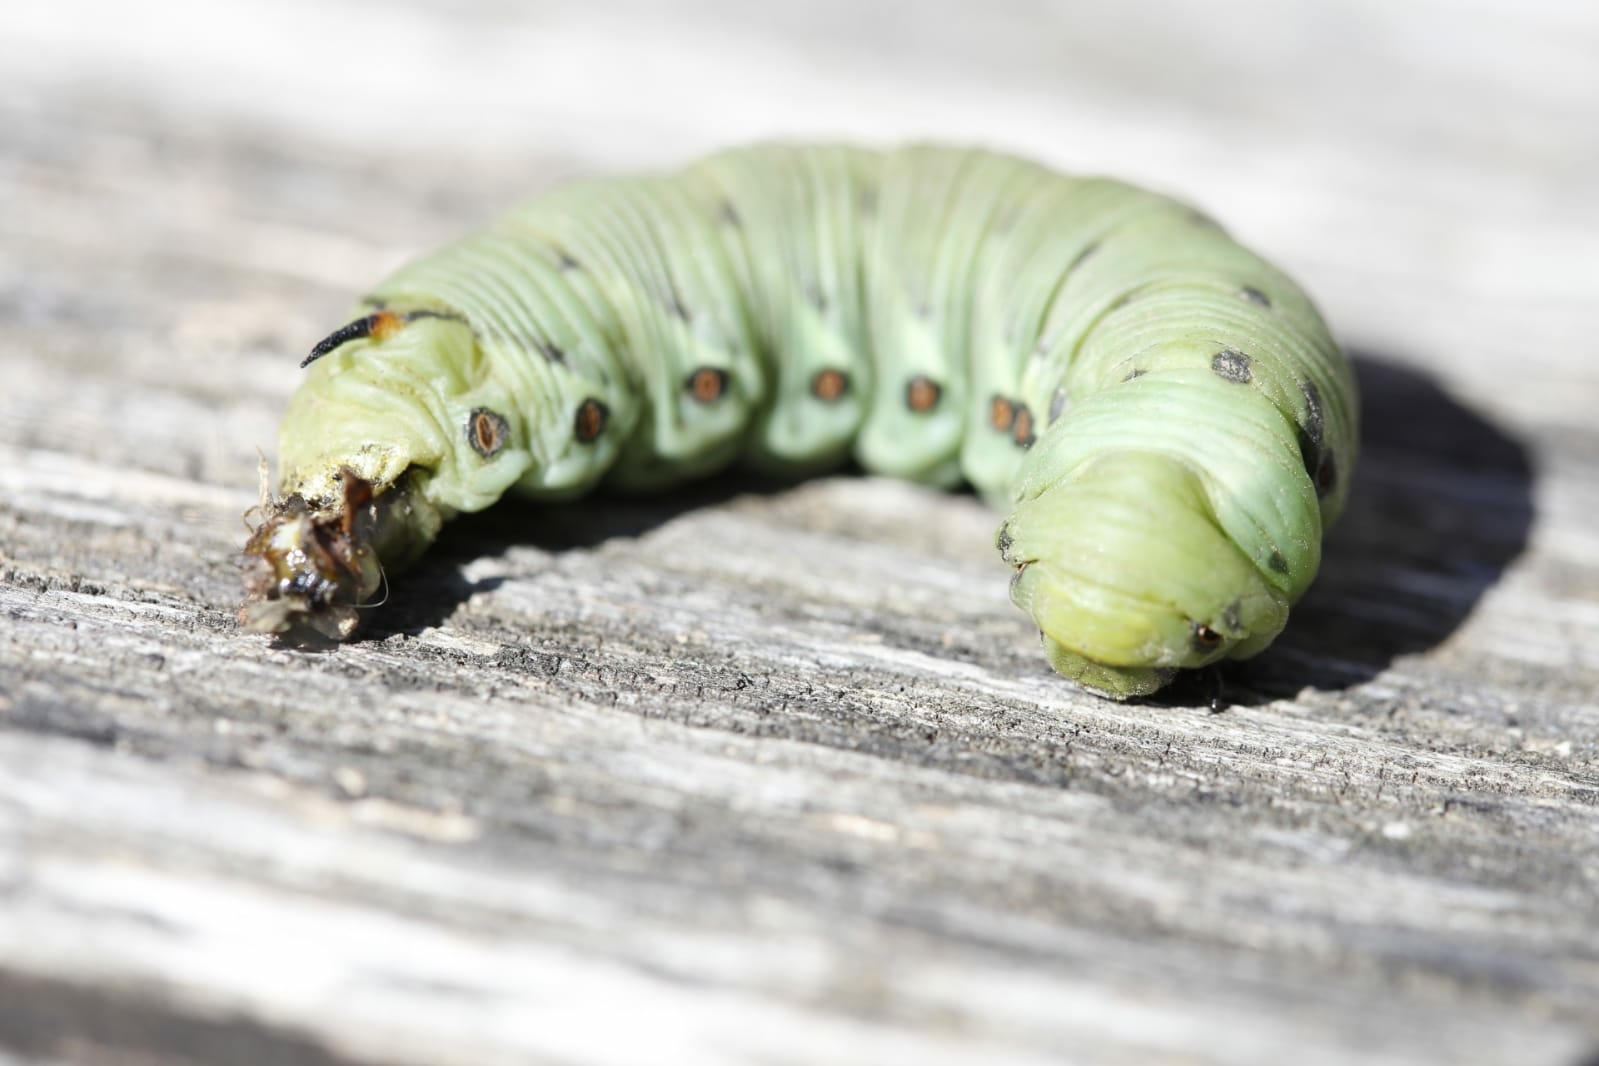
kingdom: Animalia
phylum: Arthropoda
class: Insecta
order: Lepidoptera
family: Sphingidae
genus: Agrius
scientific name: Agrius convolvuli
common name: Convolvulus hawkmoth
